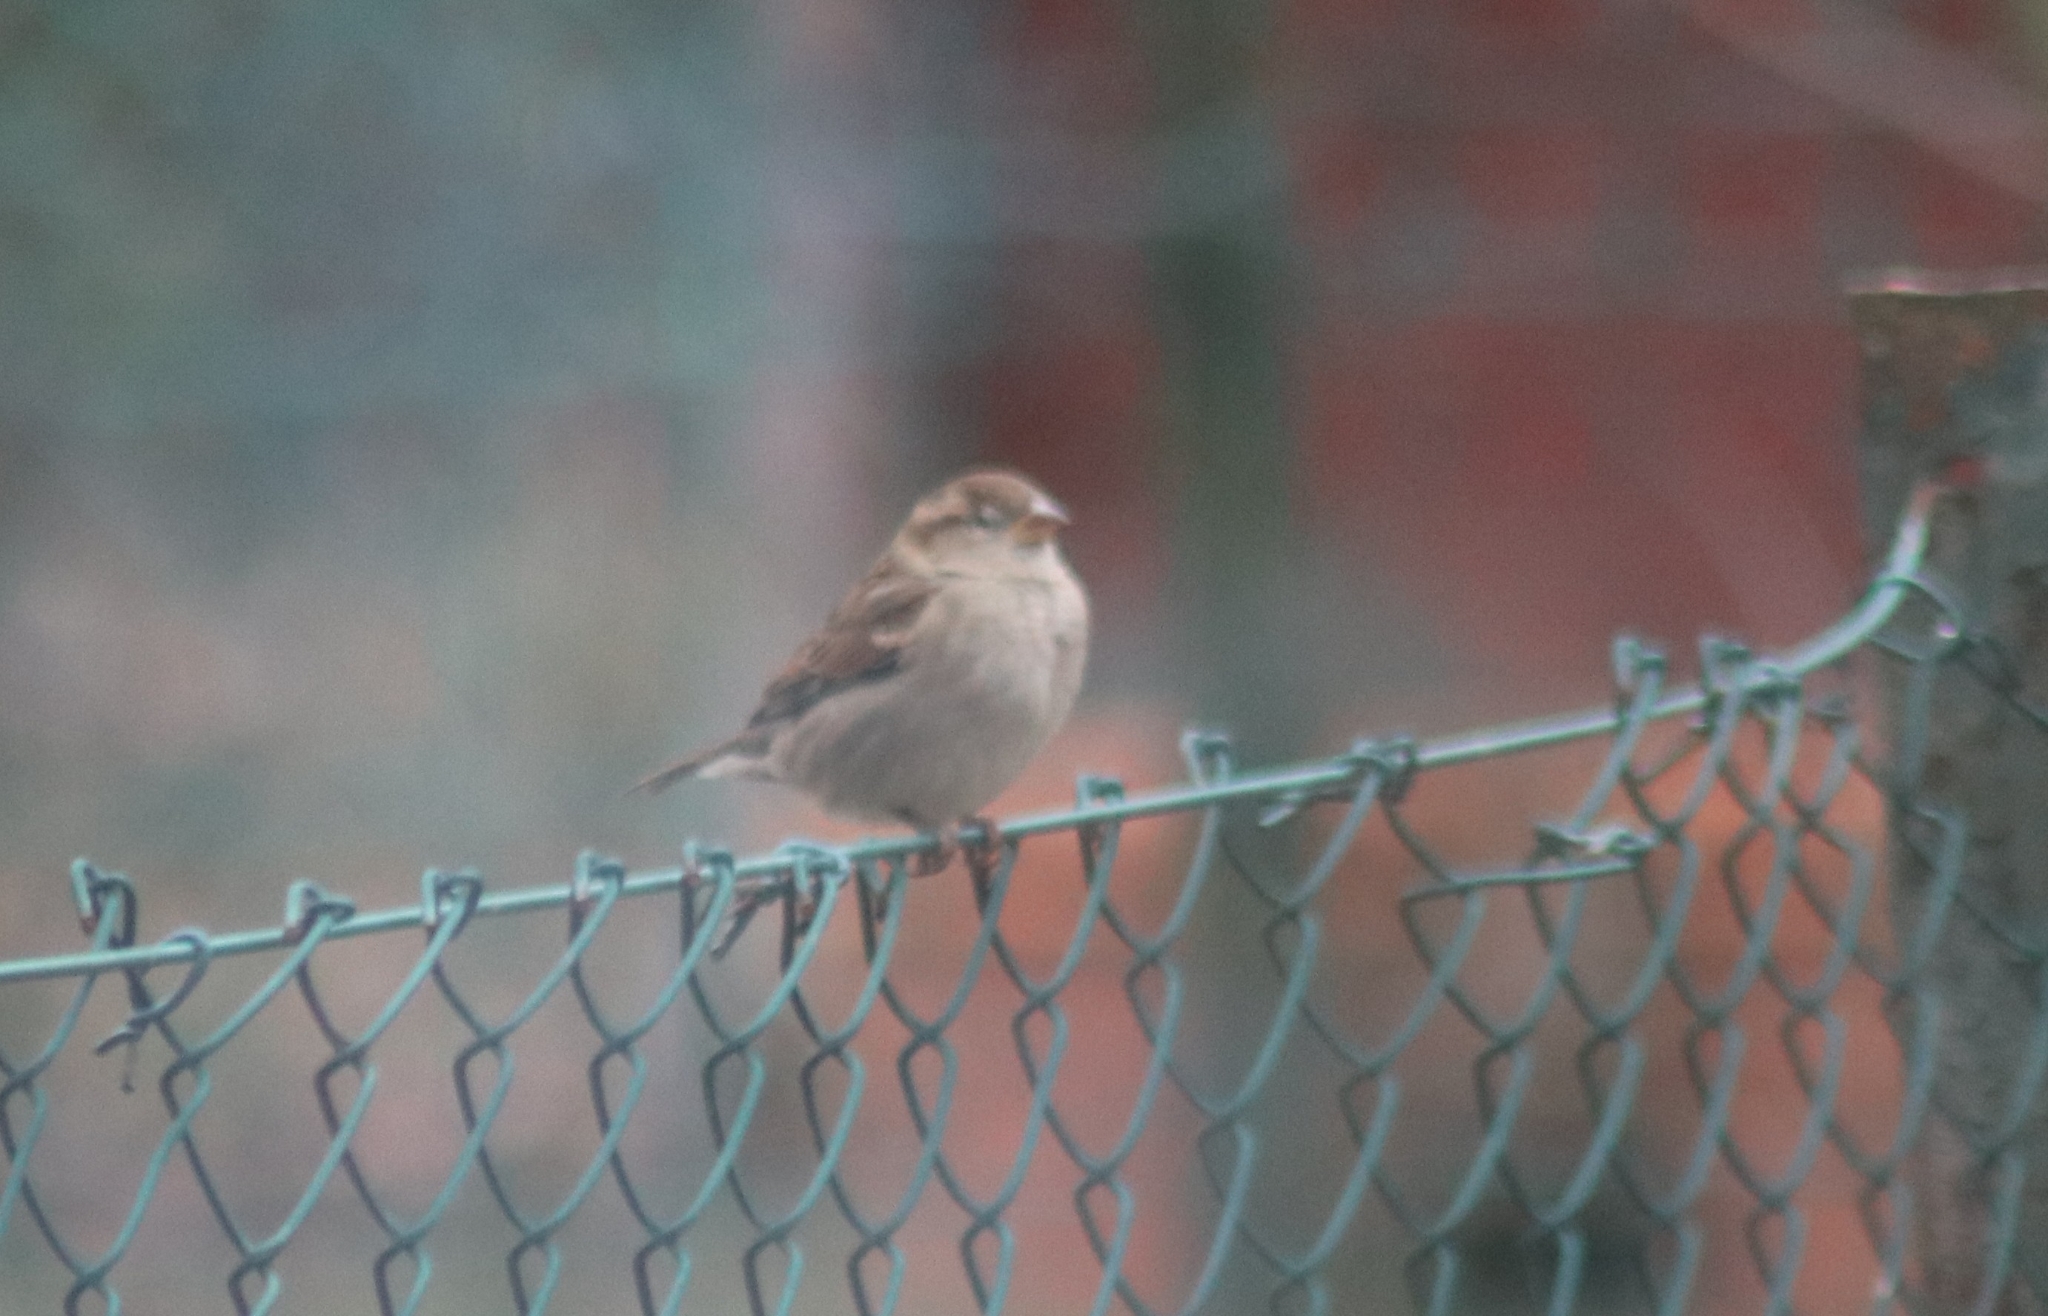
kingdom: Animalia
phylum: Chordata
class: Aves
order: Passeriformes
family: Passeridae
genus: Passer
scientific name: Passer domesticus
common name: House sparrow
